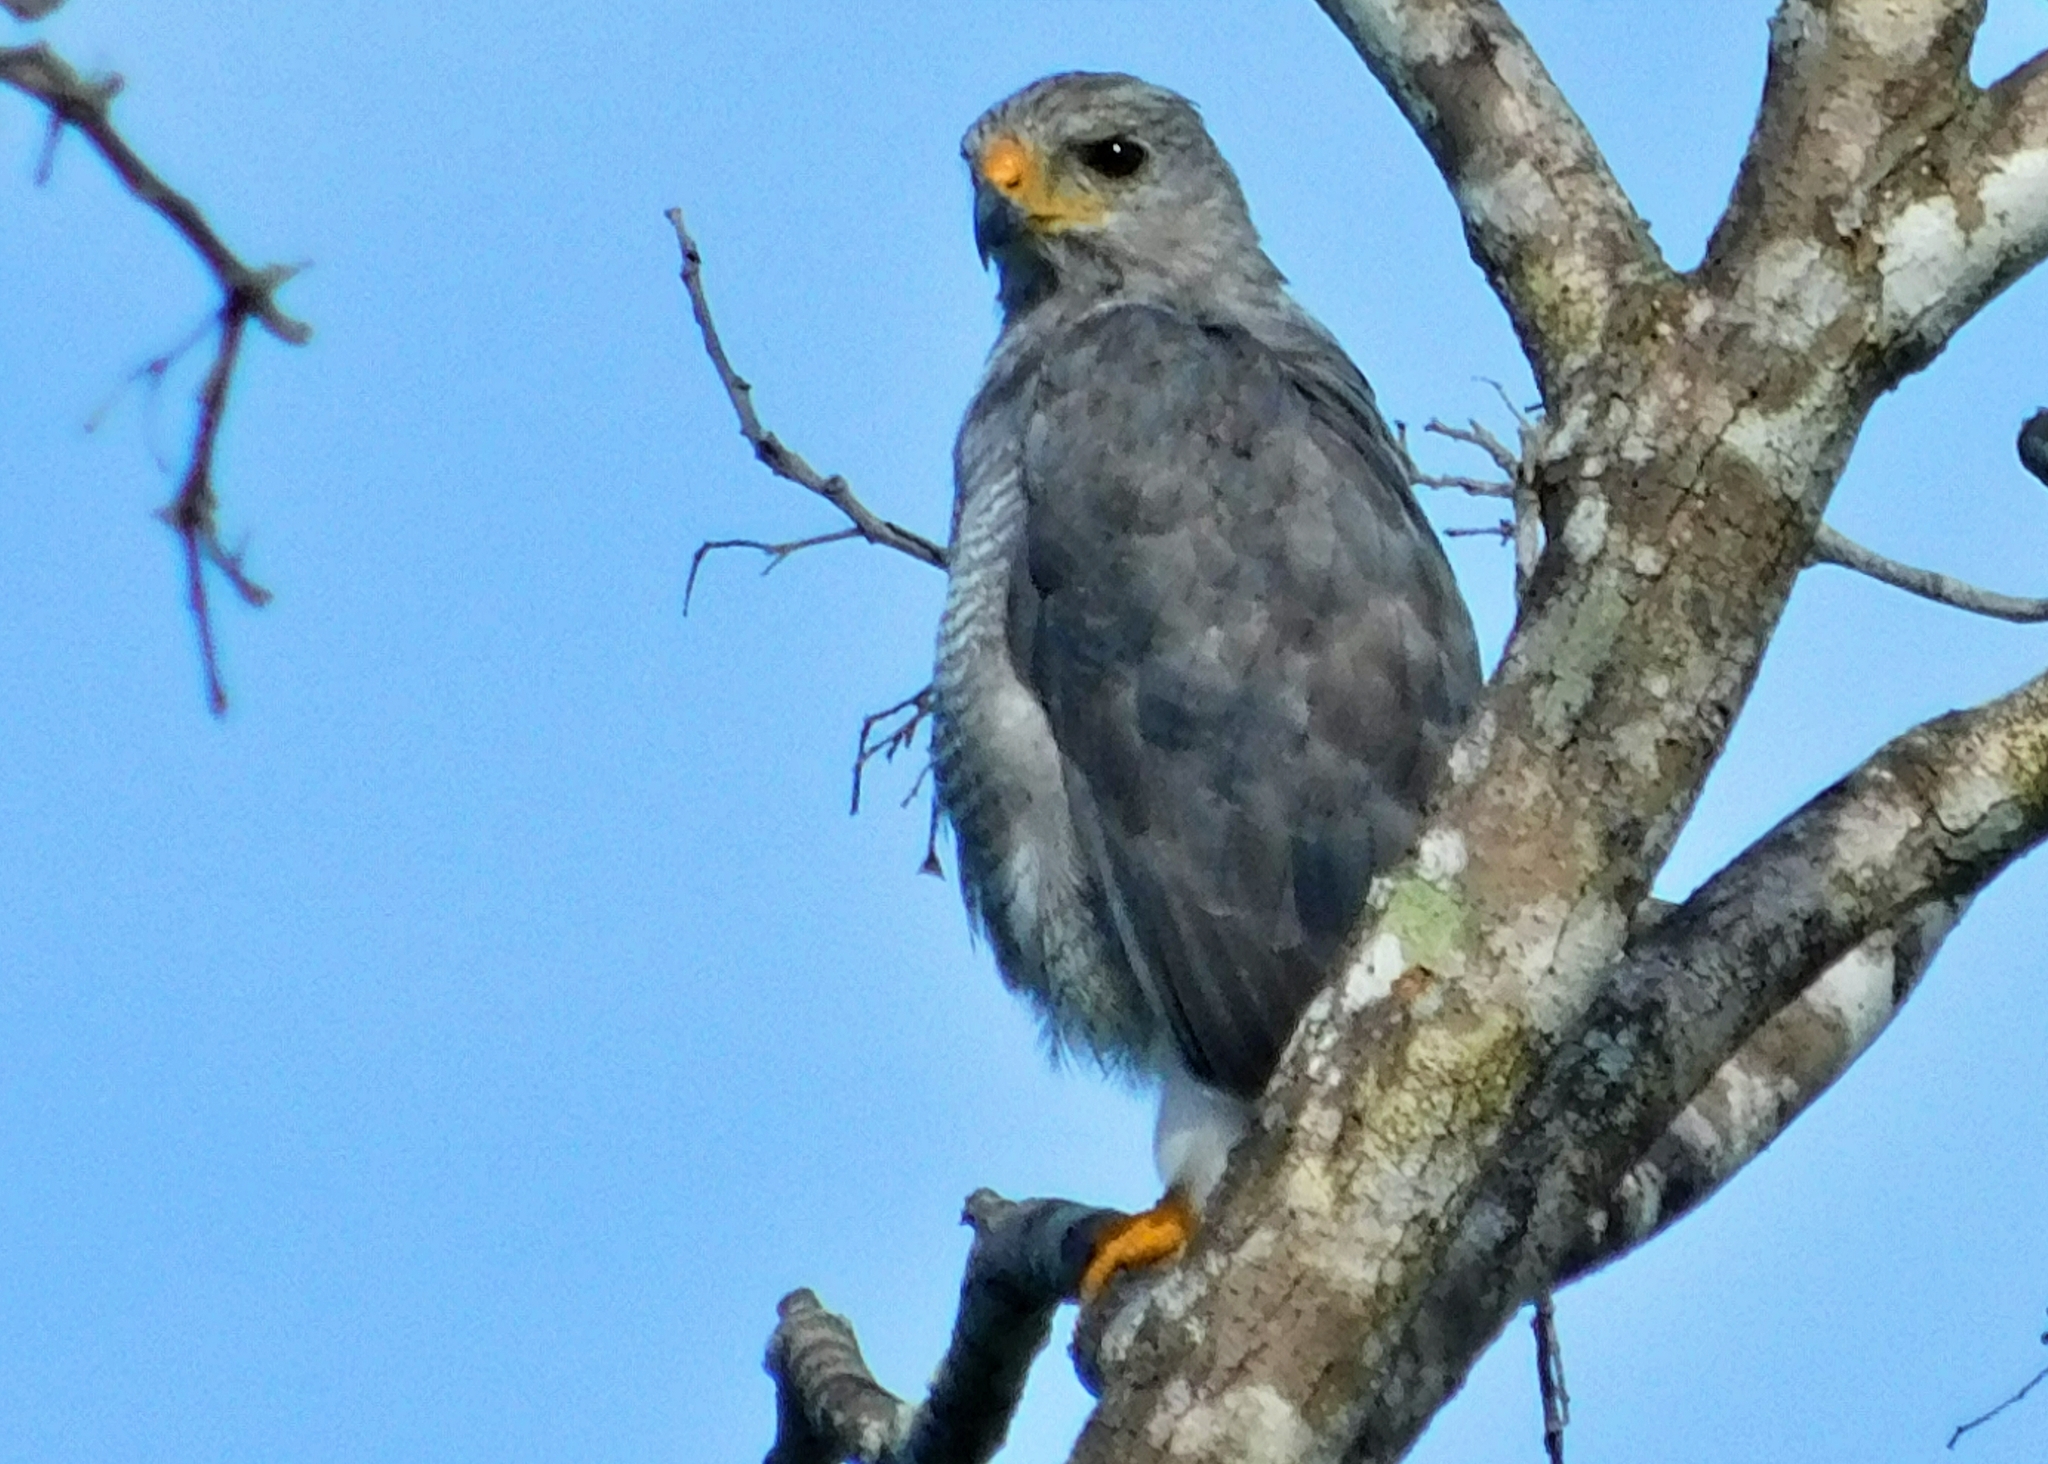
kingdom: Animalia
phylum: Chordata
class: Aves
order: Accipitriformes
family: Accipitridae
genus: Buteo
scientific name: Buteo nitidus
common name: Grey-lined hawk
